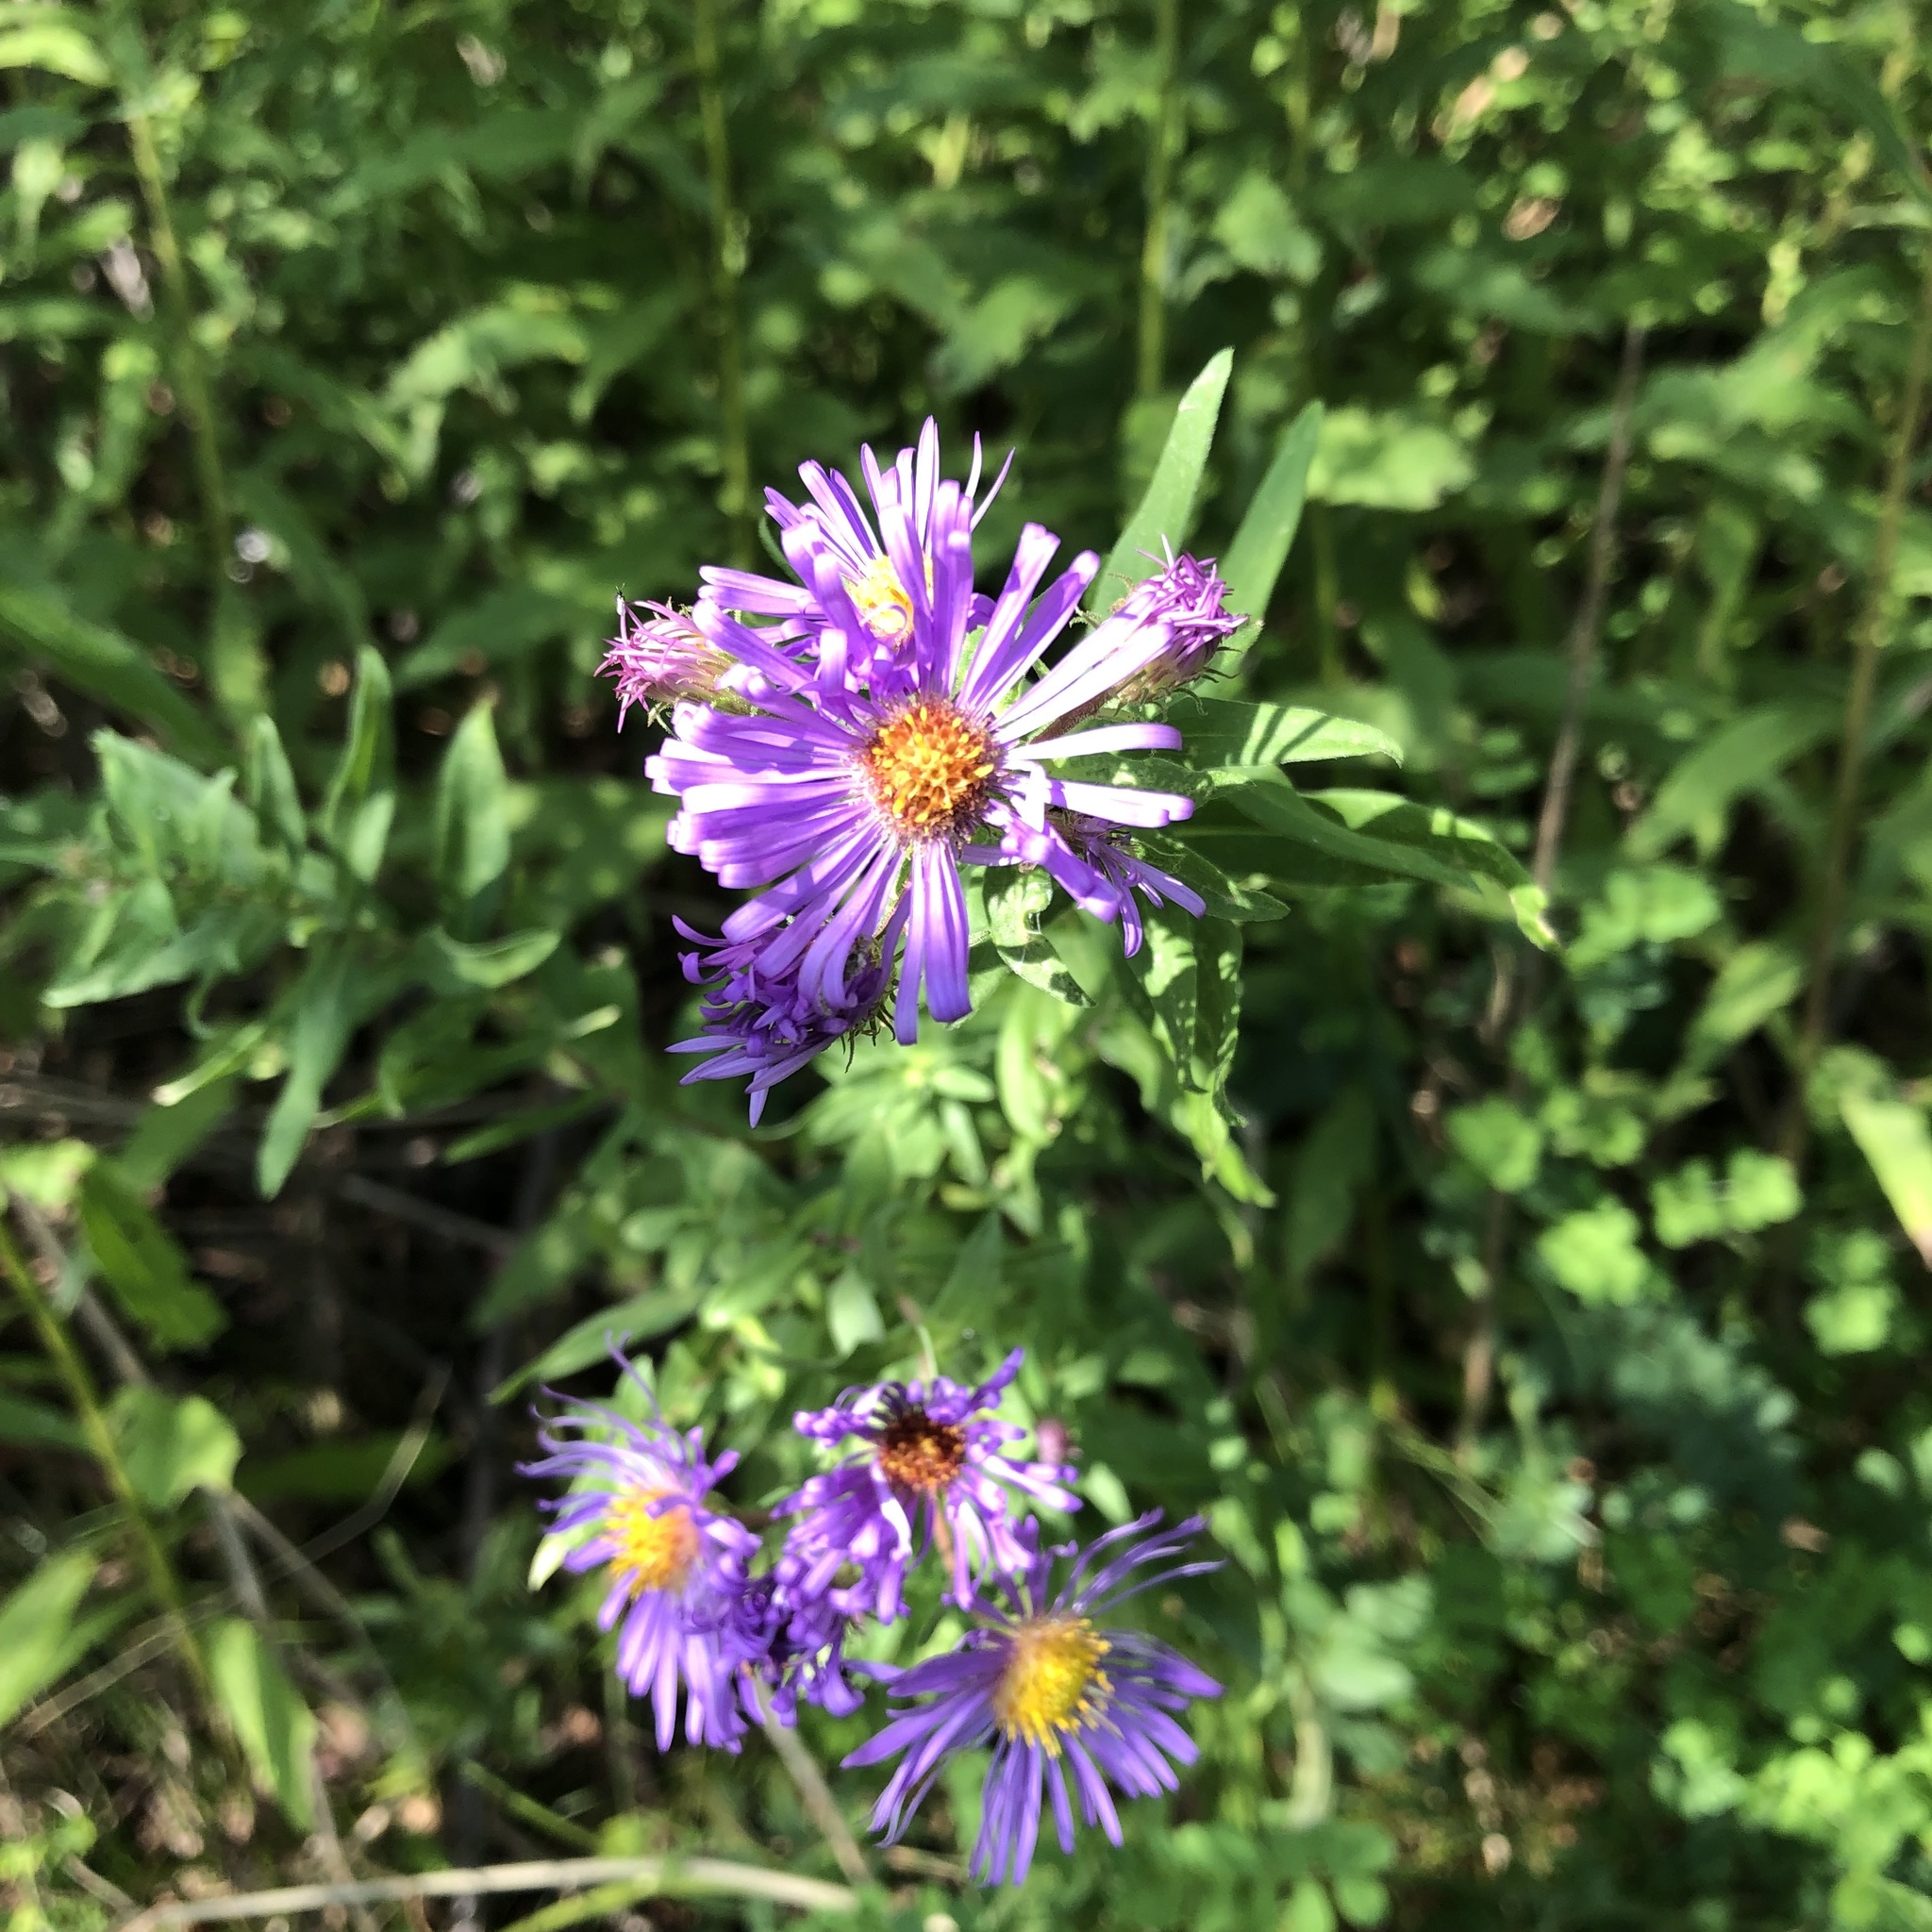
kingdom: Plantae
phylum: Tracheophyta
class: Magnoliopsida
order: Asterales
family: Asteraceae
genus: Symphyotrichum
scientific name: Symphyotrichum novae-angliae
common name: Michaelmas daisy
